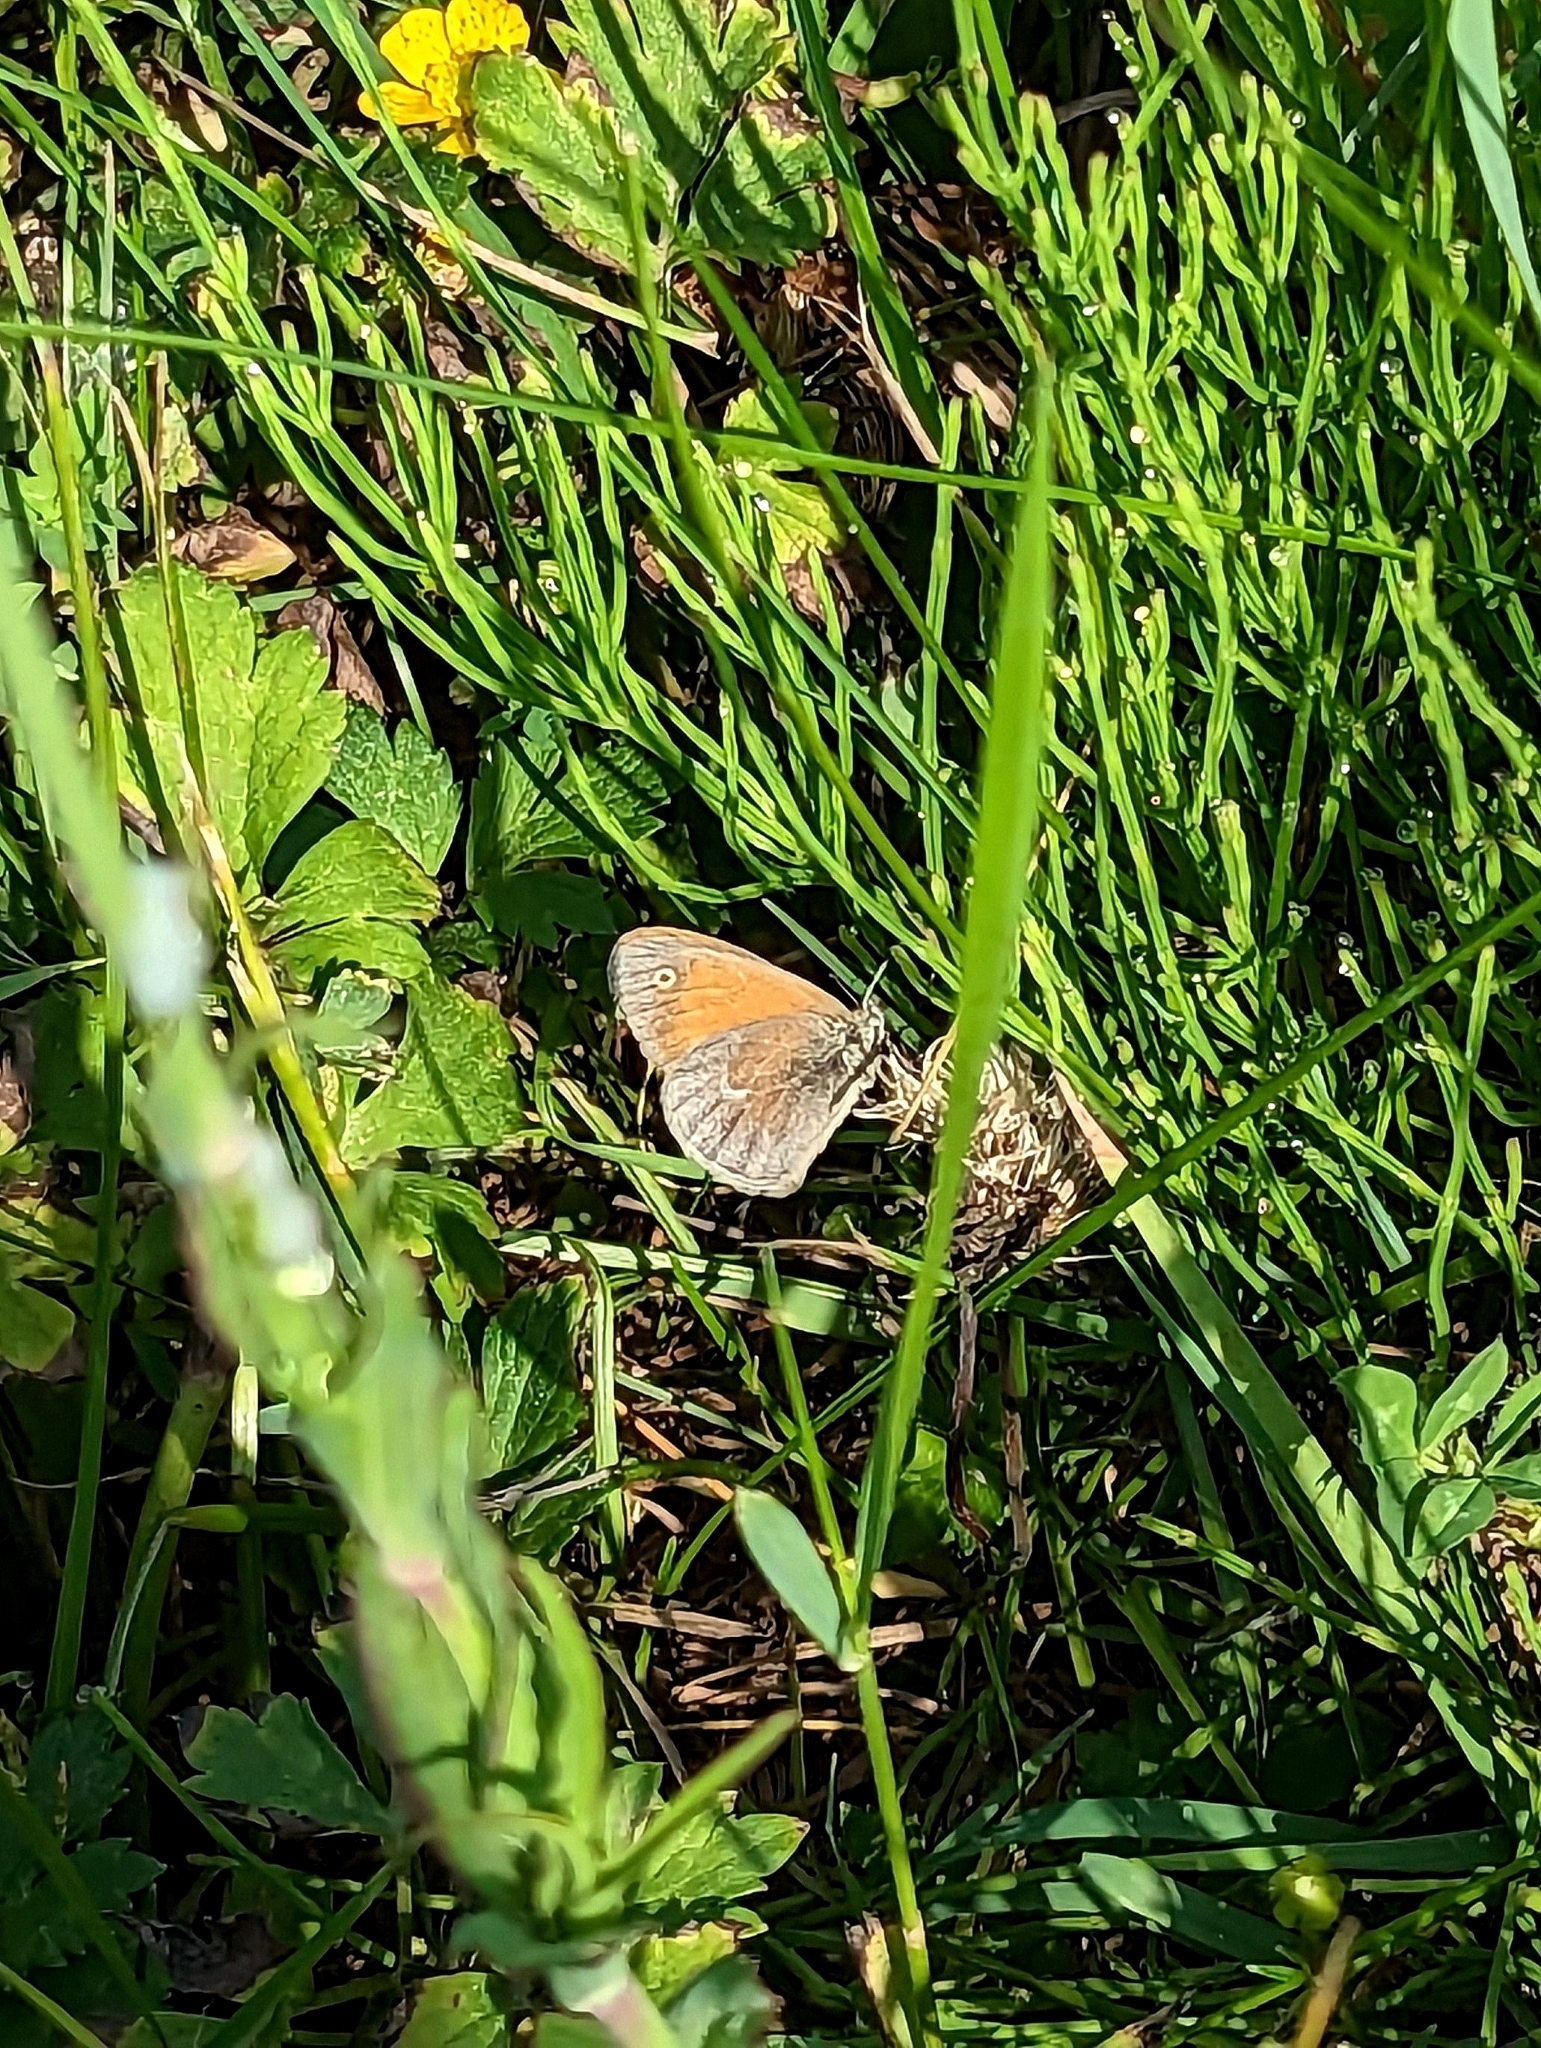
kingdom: Animalia
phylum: Arthropoda
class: Insecta
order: Lepidoptera
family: Nymphalidae
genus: Coenonympha
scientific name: Coenonympha california
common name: Common ringlet
